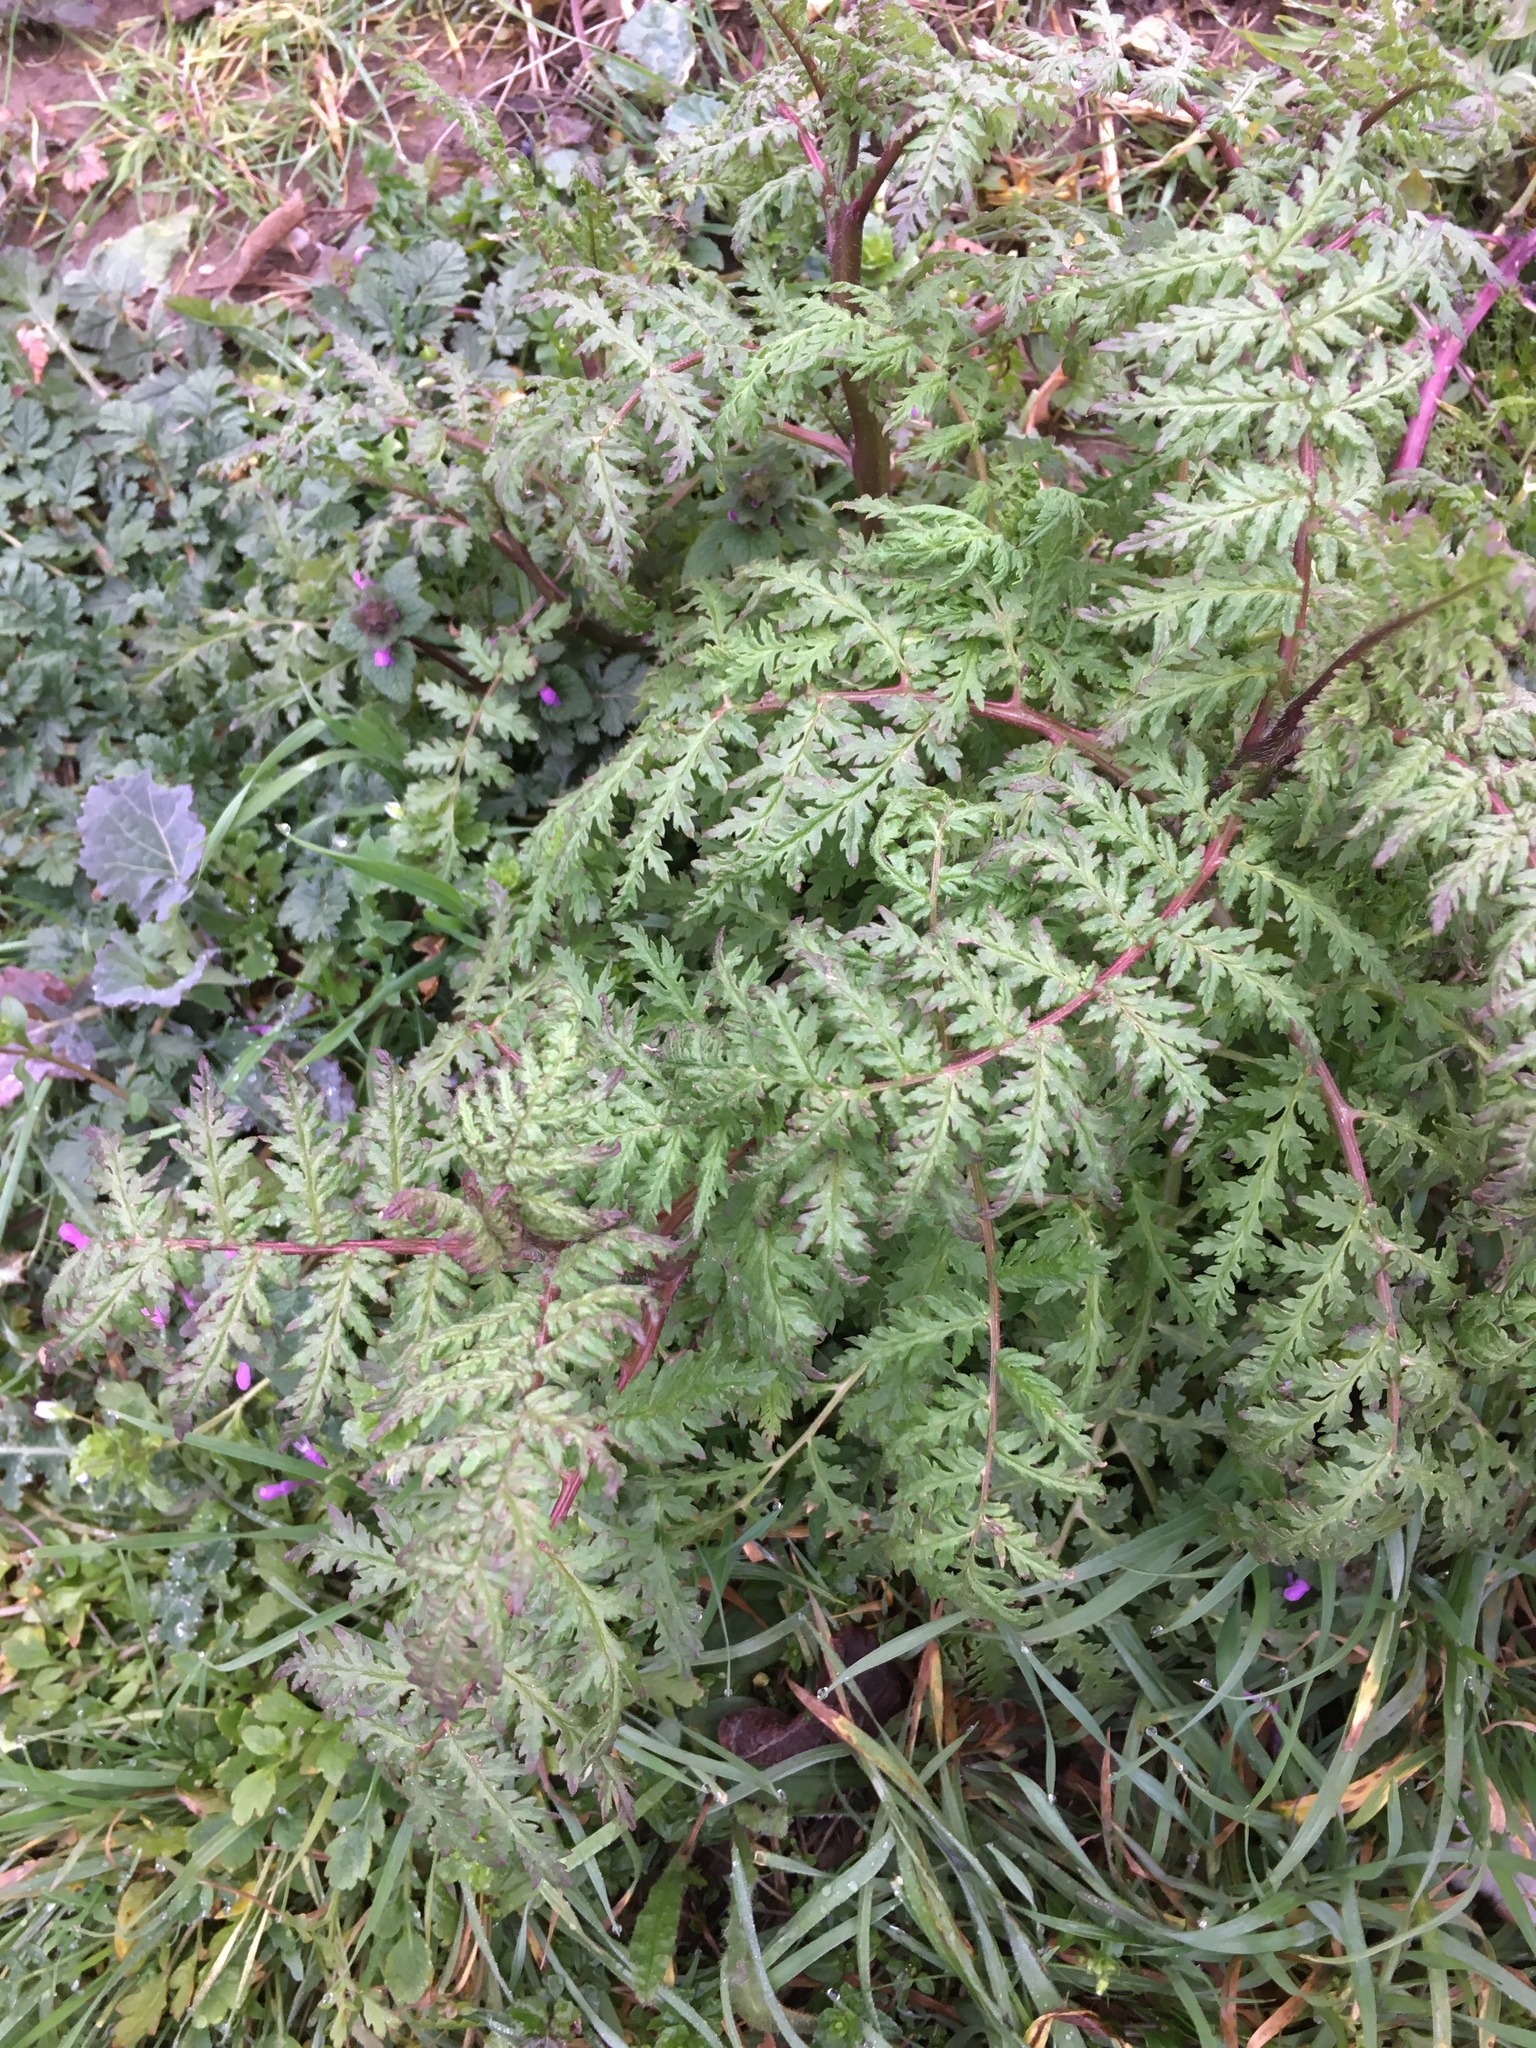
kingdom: Plantae
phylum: Tracheophyta
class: Magnoliopsida
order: Boraginales
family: Hydrophyllaceae
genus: Phacelia
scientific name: Phacelia tanacetifolia
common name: Phacelia
